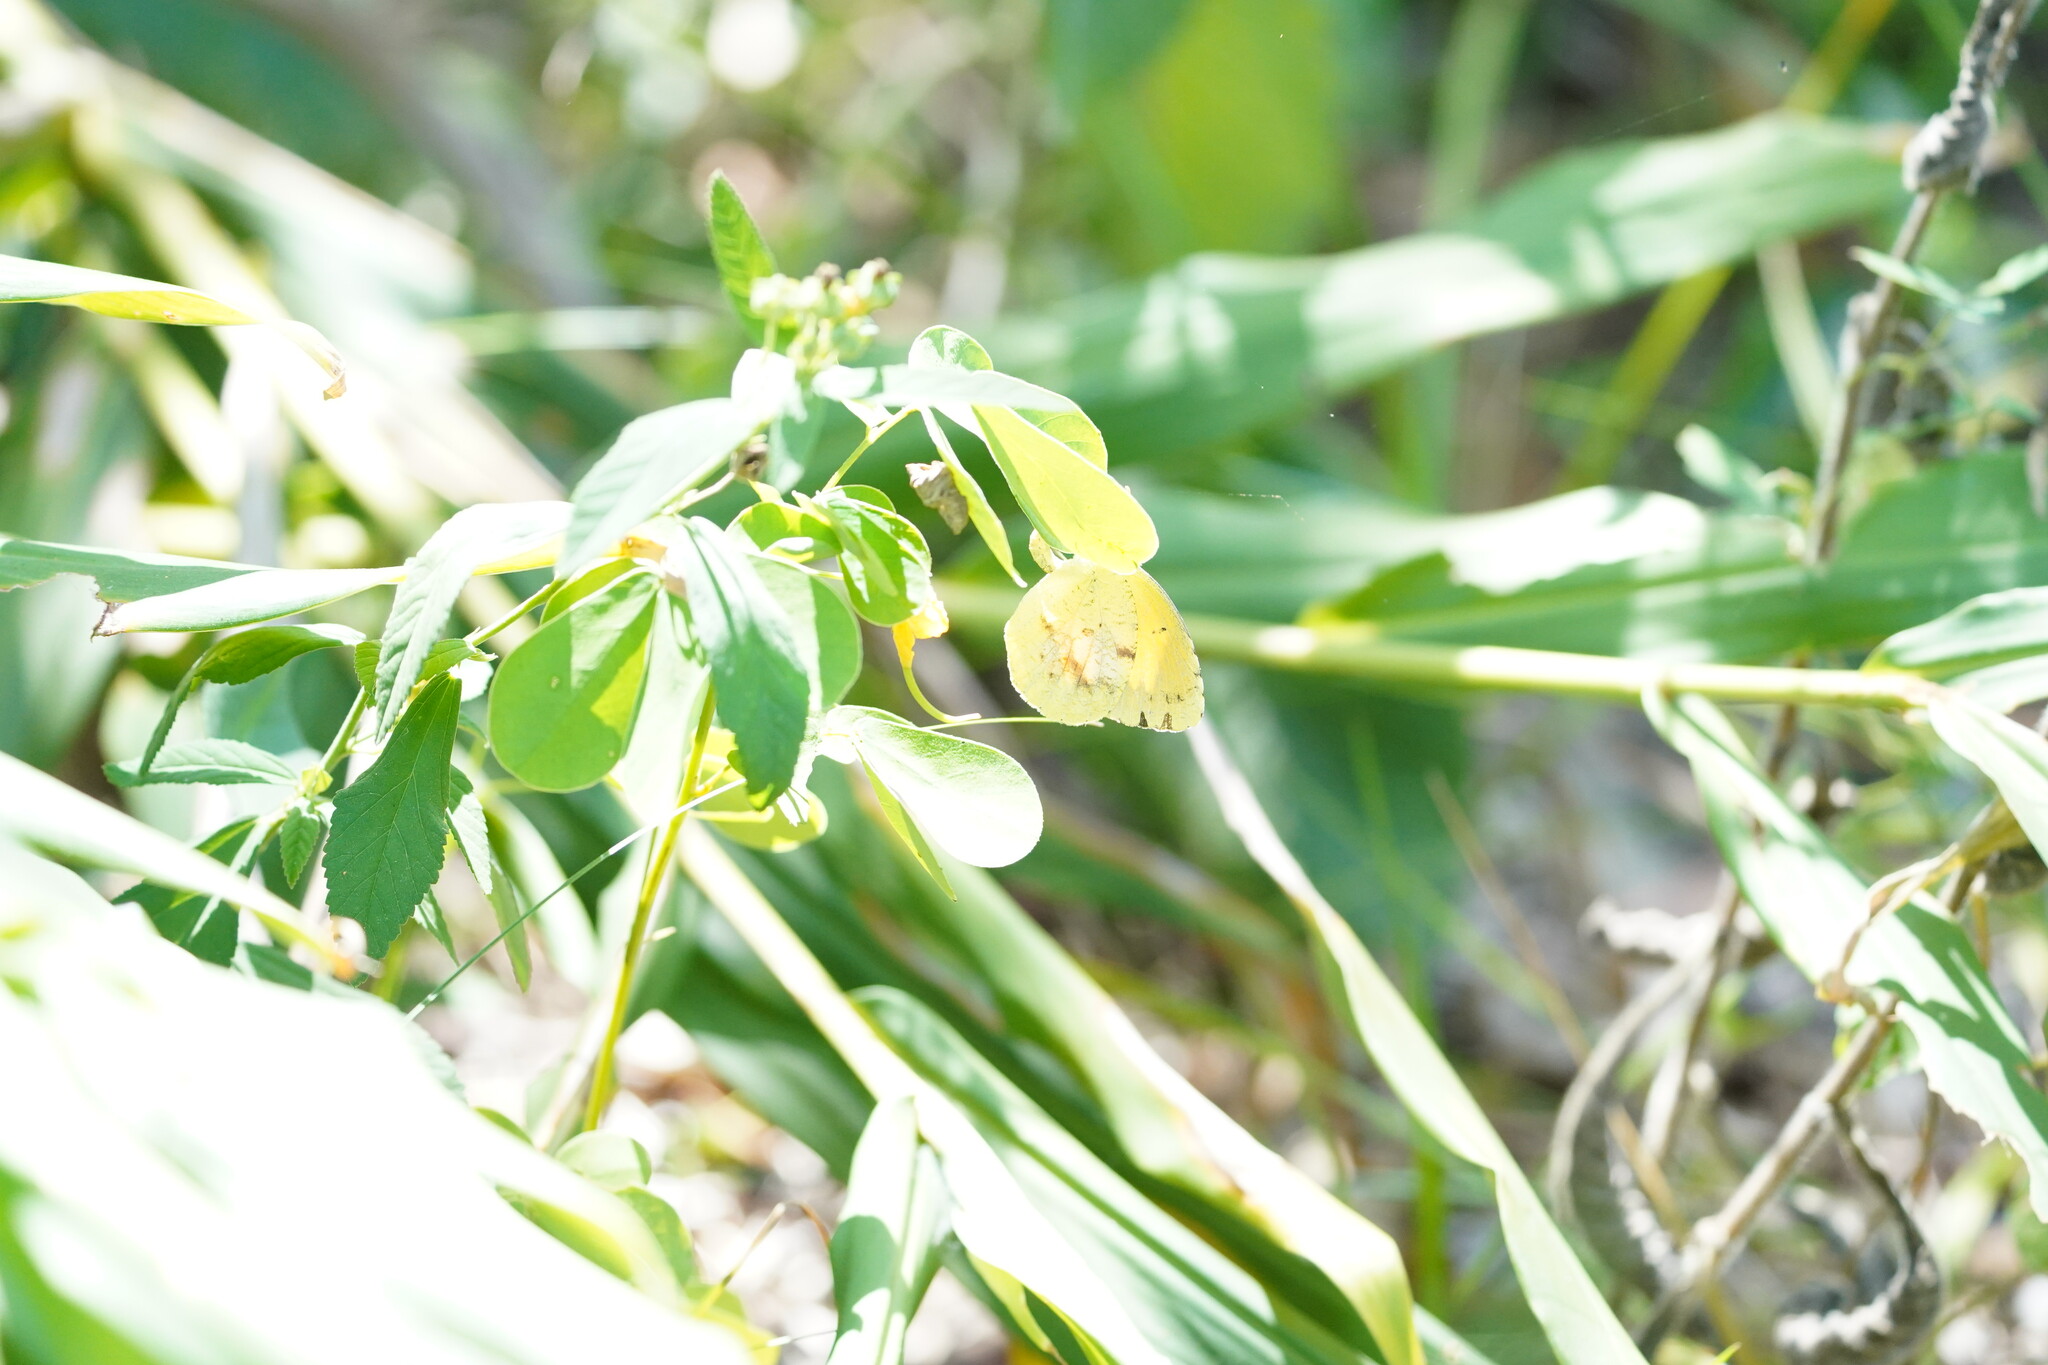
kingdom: Animalia
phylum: Arthropoda
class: Insecta
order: Lepidoptera
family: Pieridae
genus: Abaeis
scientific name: Abaeis nicippe
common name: Sleepy orange
